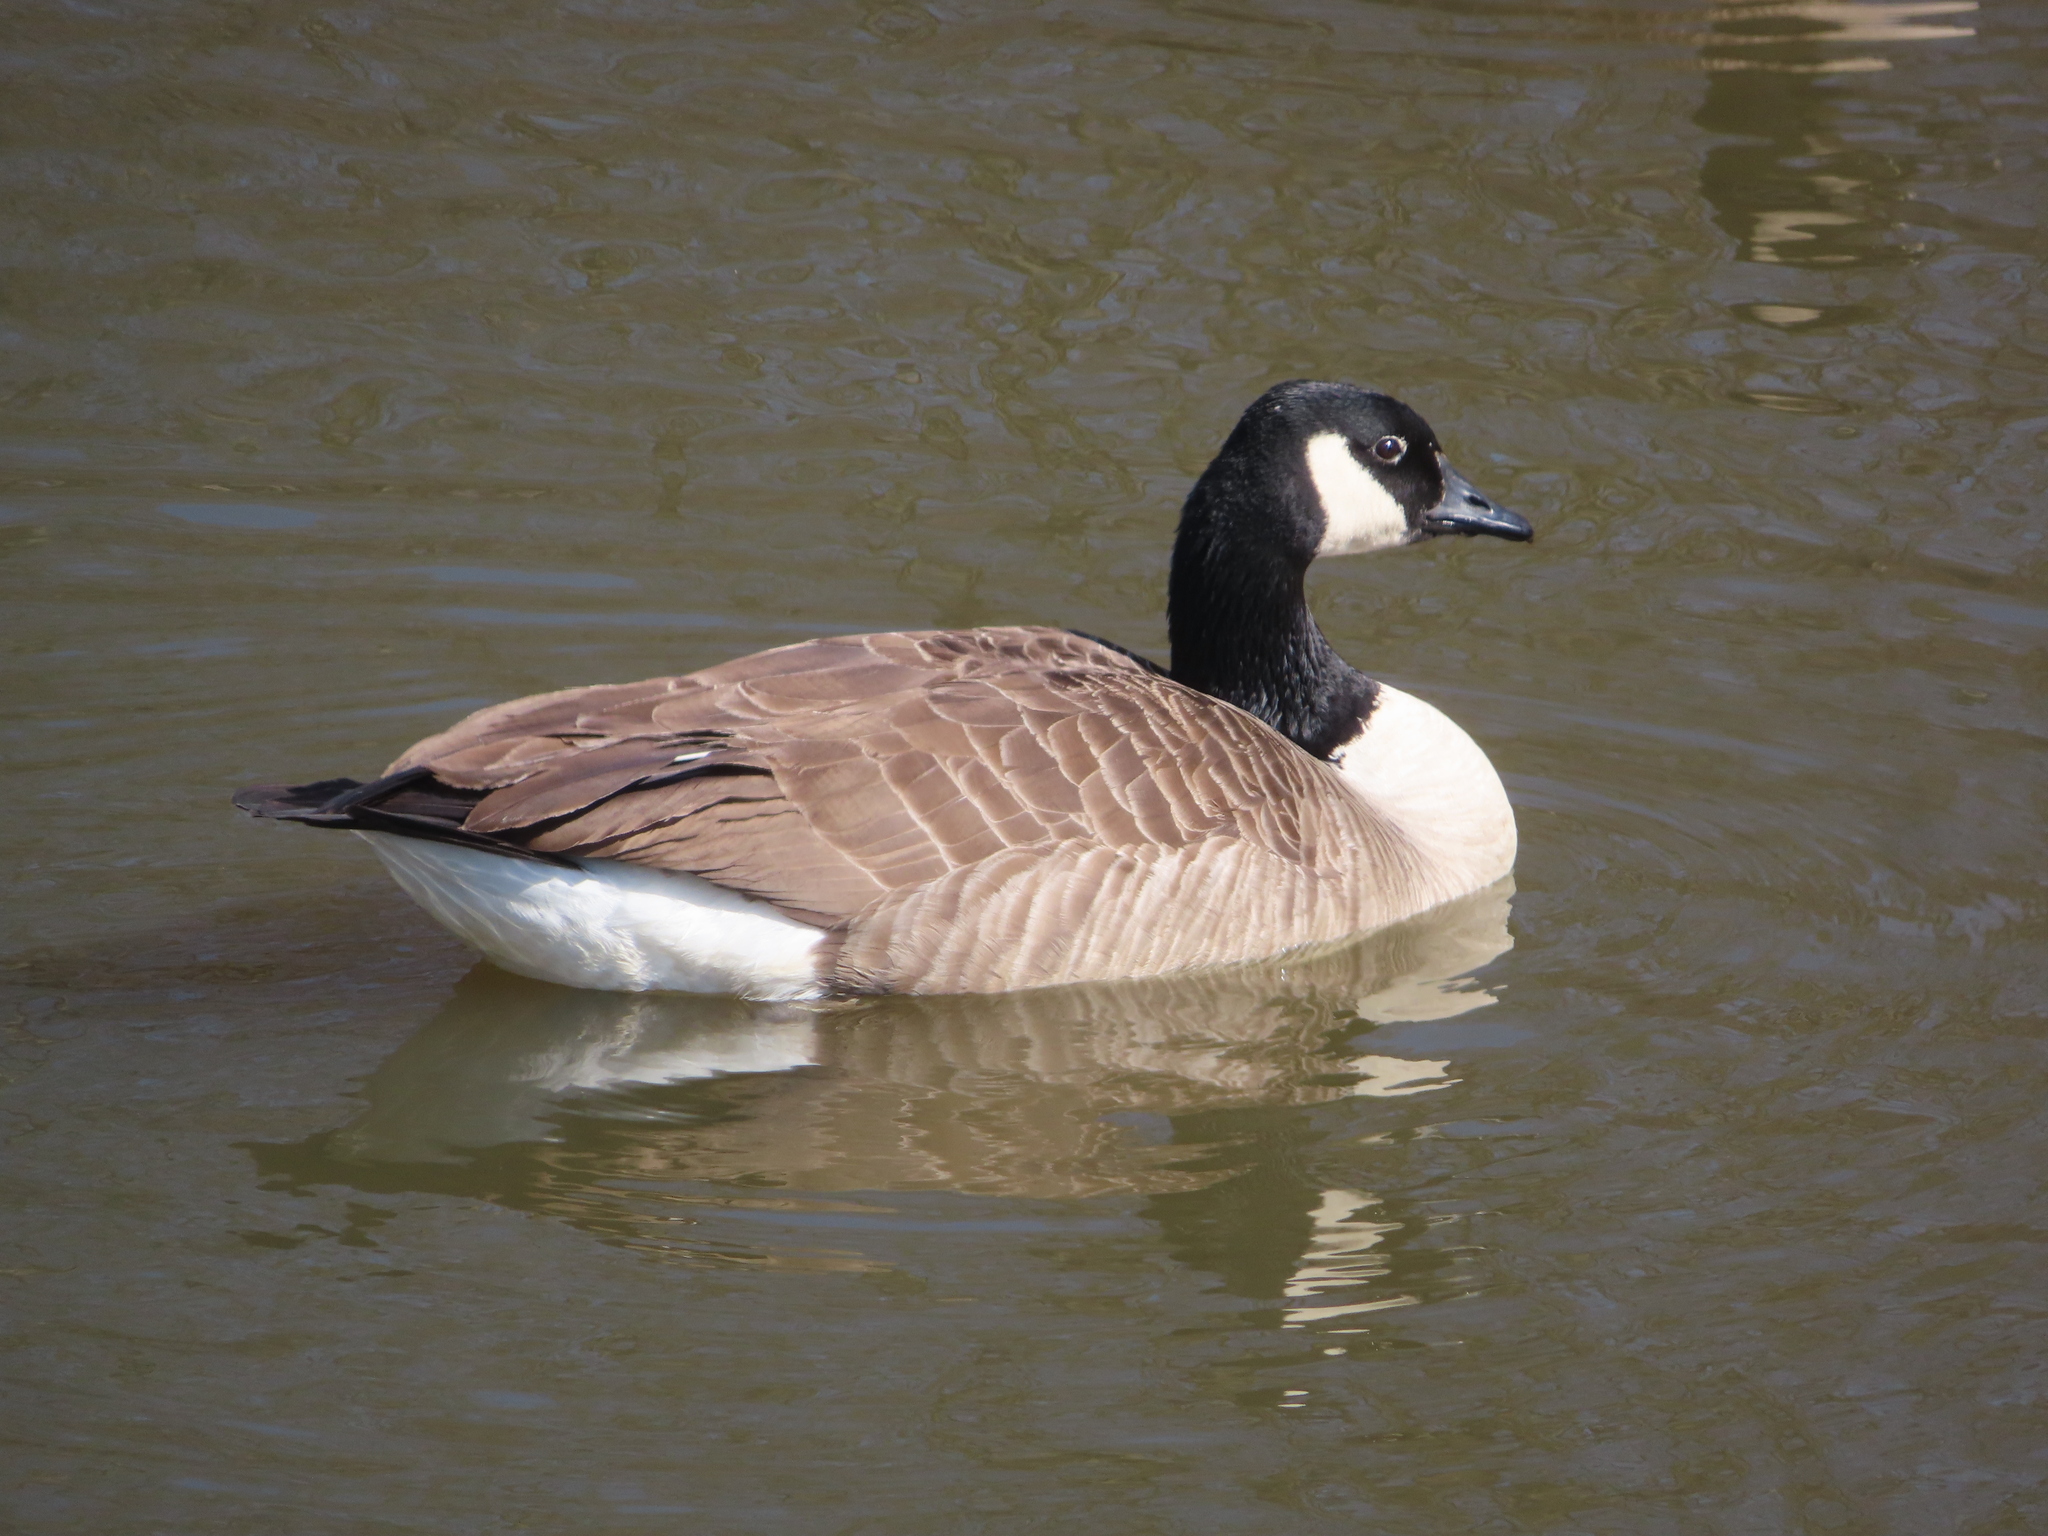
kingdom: Animalia
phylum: Chordata
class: Aves
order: Anseriformes
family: Anatidae
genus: Branta
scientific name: Branta canadensis
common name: Canada goose
